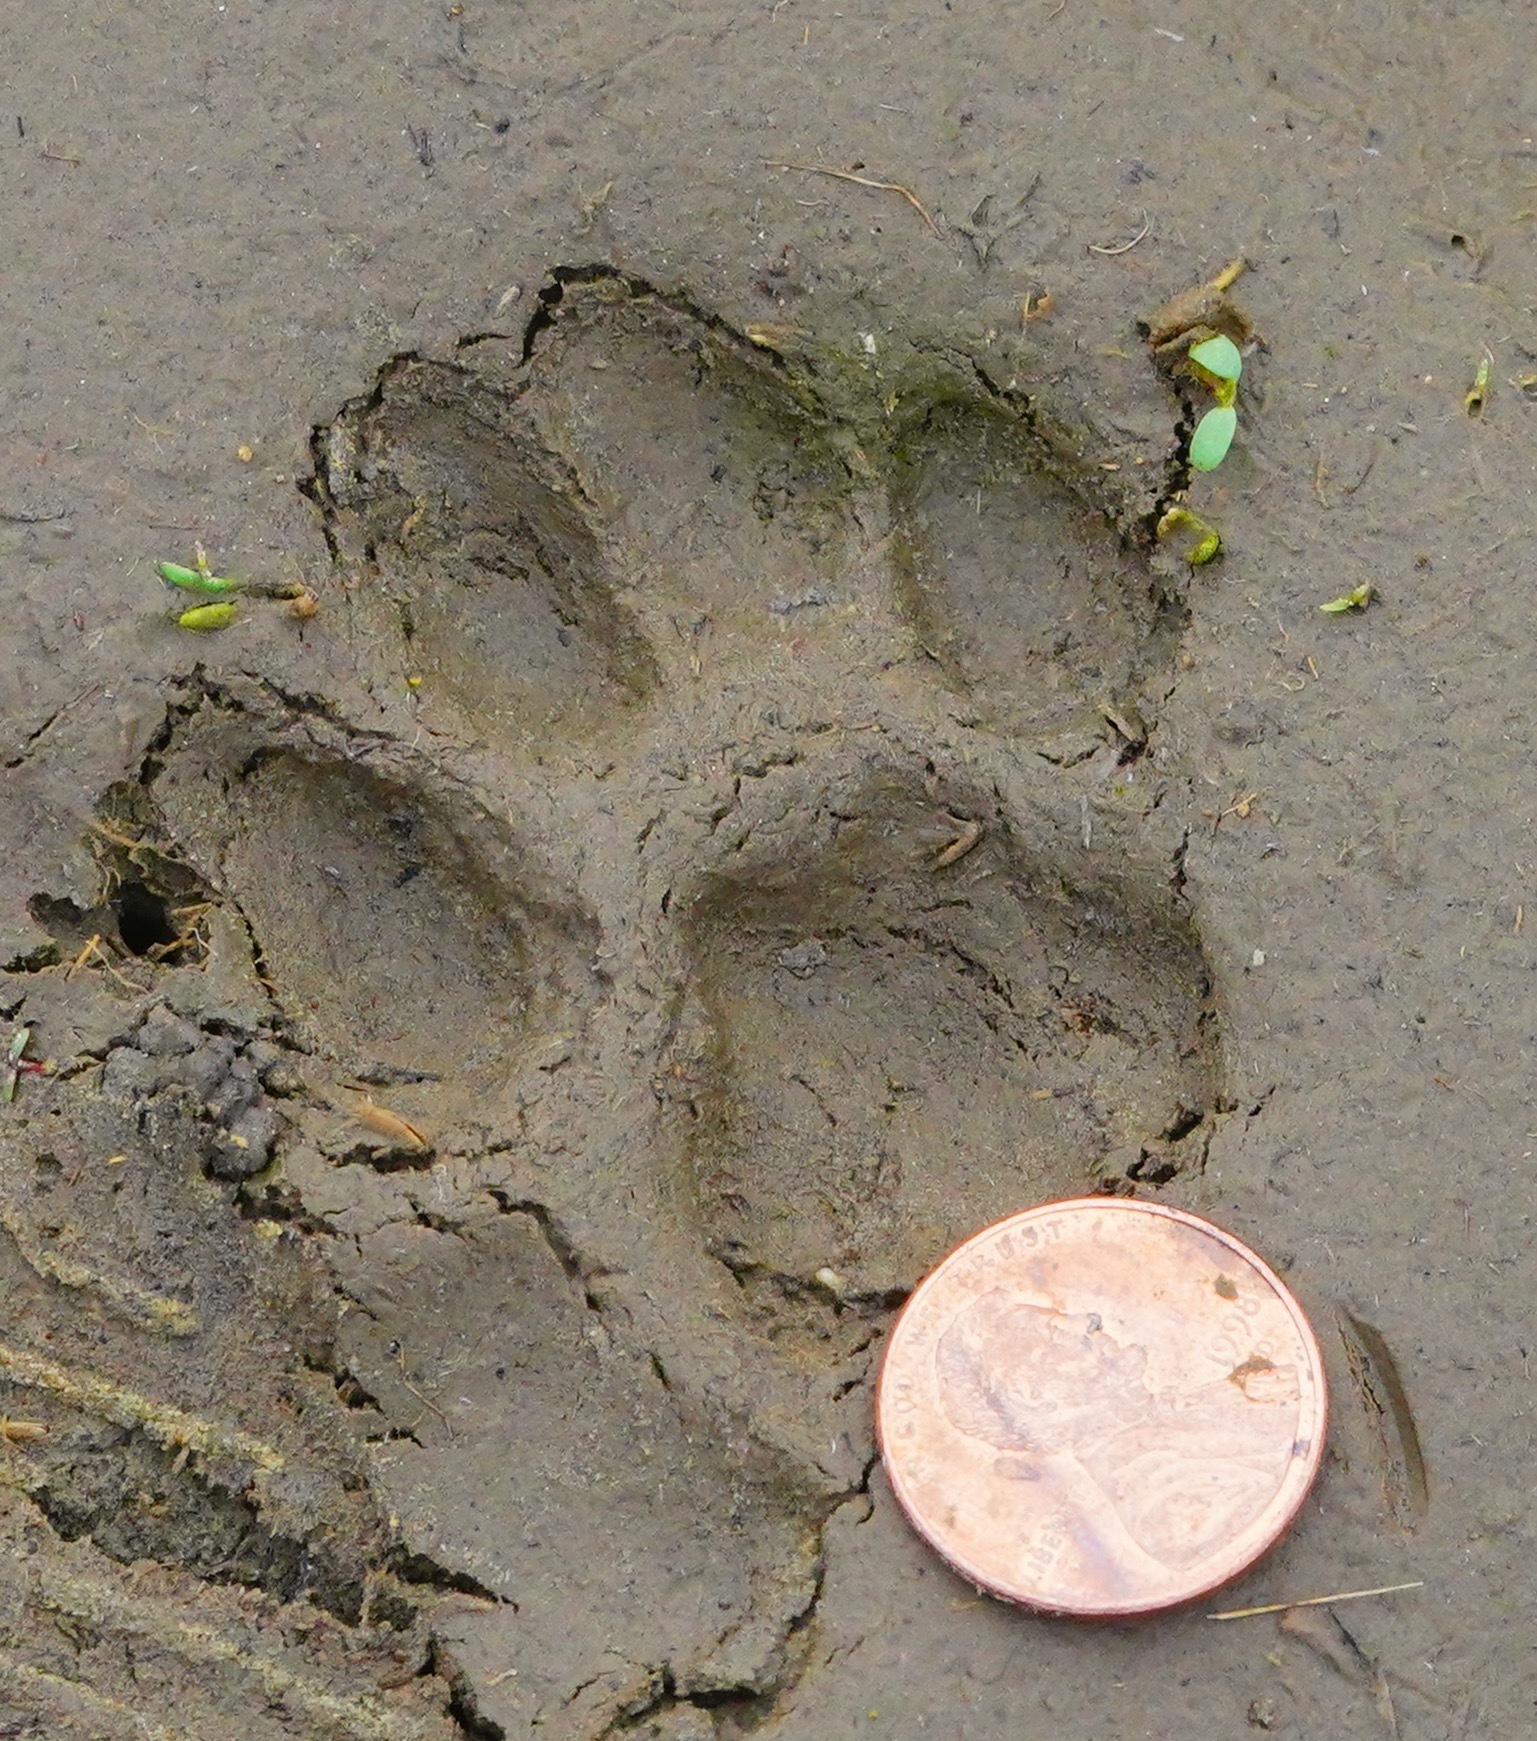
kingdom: Animalia
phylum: Chordata
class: Mammalia
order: Carnivora
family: Felidae
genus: Lynx
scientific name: Lynx rufus
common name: Bobcat
